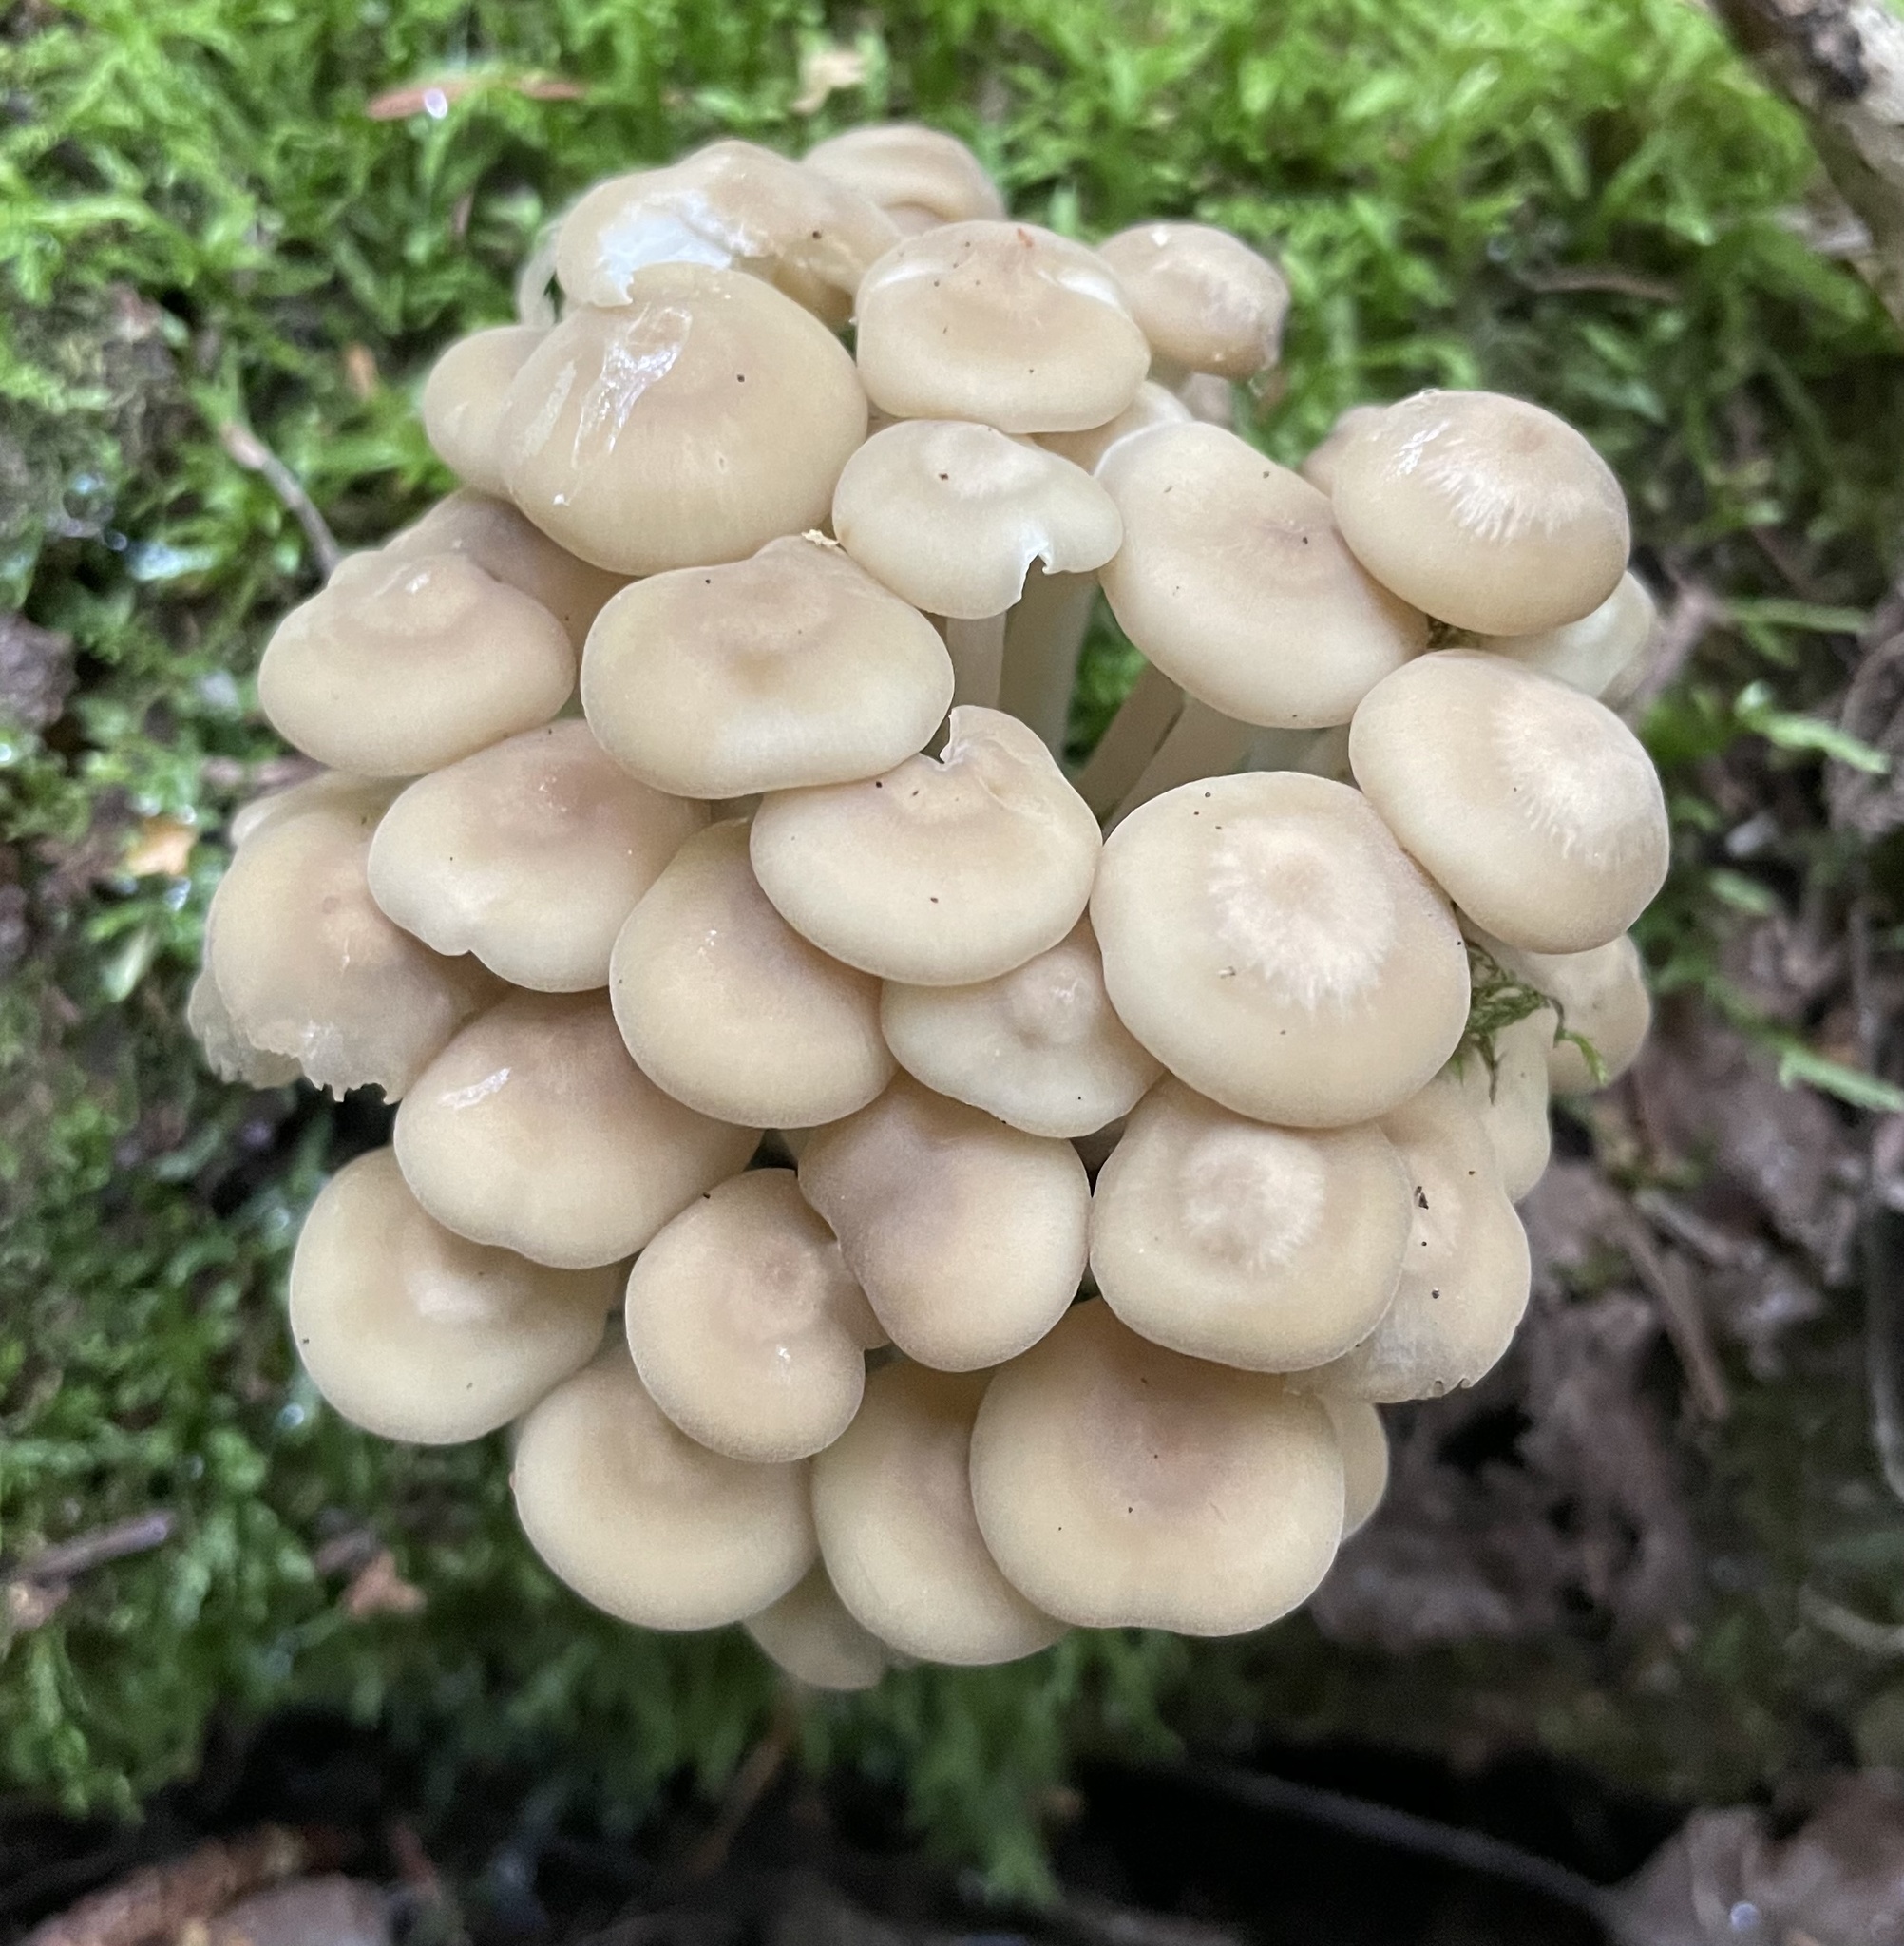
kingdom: Fungi
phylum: Basidiomycota
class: Agaricomycetes
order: Agaricales
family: Marasmiaceae
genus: Clitocybula
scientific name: Clitocybula familia
